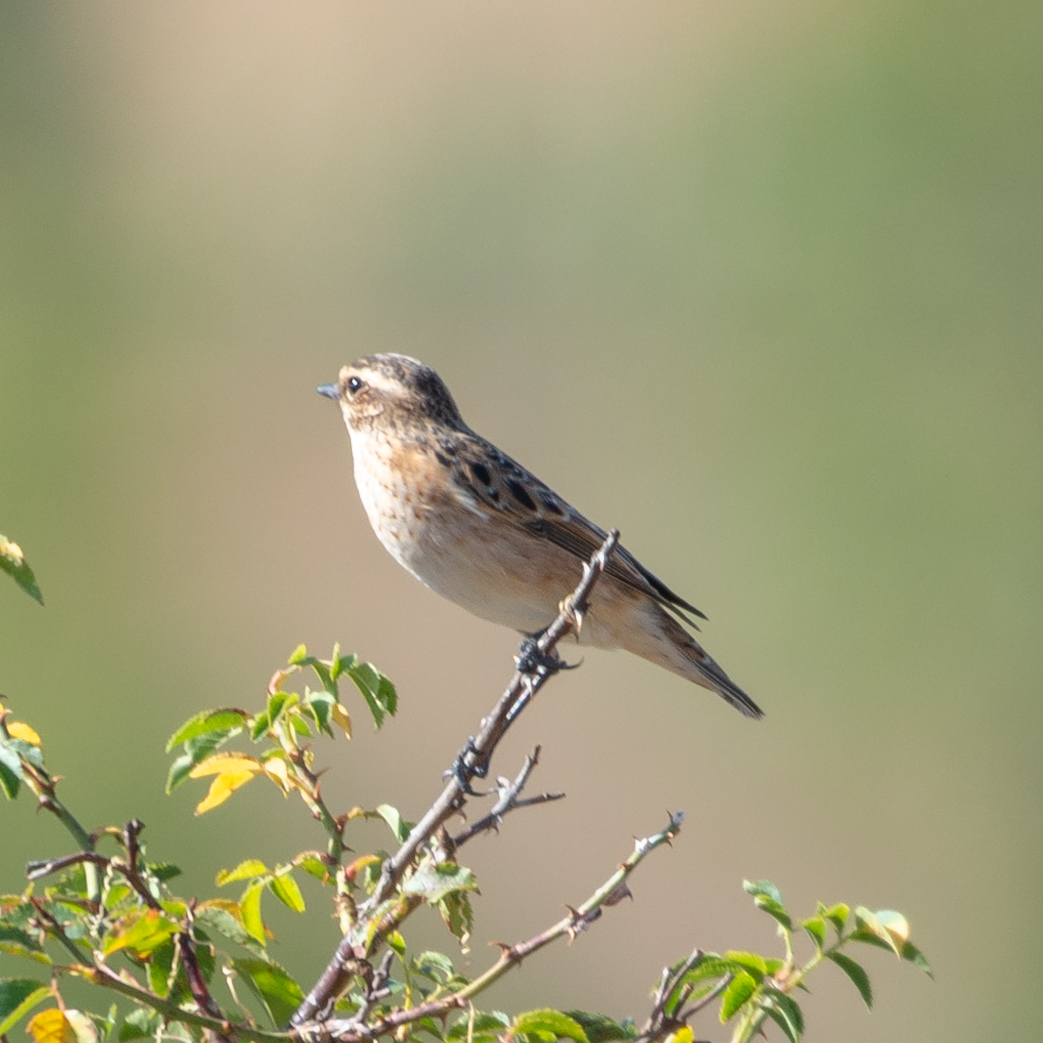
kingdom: Animalia
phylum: Chordata
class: Aves
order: Passeriformes
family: Muscicapidae
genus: Saxicola
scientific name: Saxicola rubetra
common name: Whinchat
